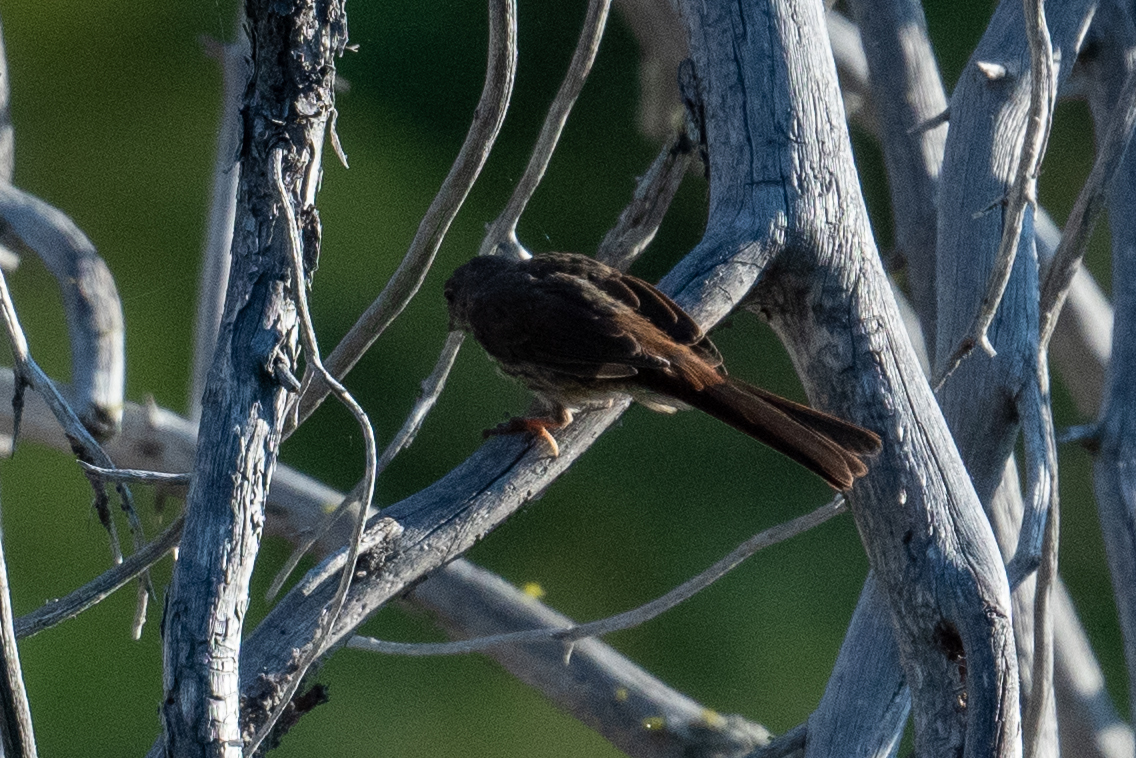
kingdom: Animalia
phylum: Chordata
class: Aves
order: Passeriformes
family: Passerellidae
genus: Passerella
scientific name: Passerella iliaca
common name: Fox sparrow
